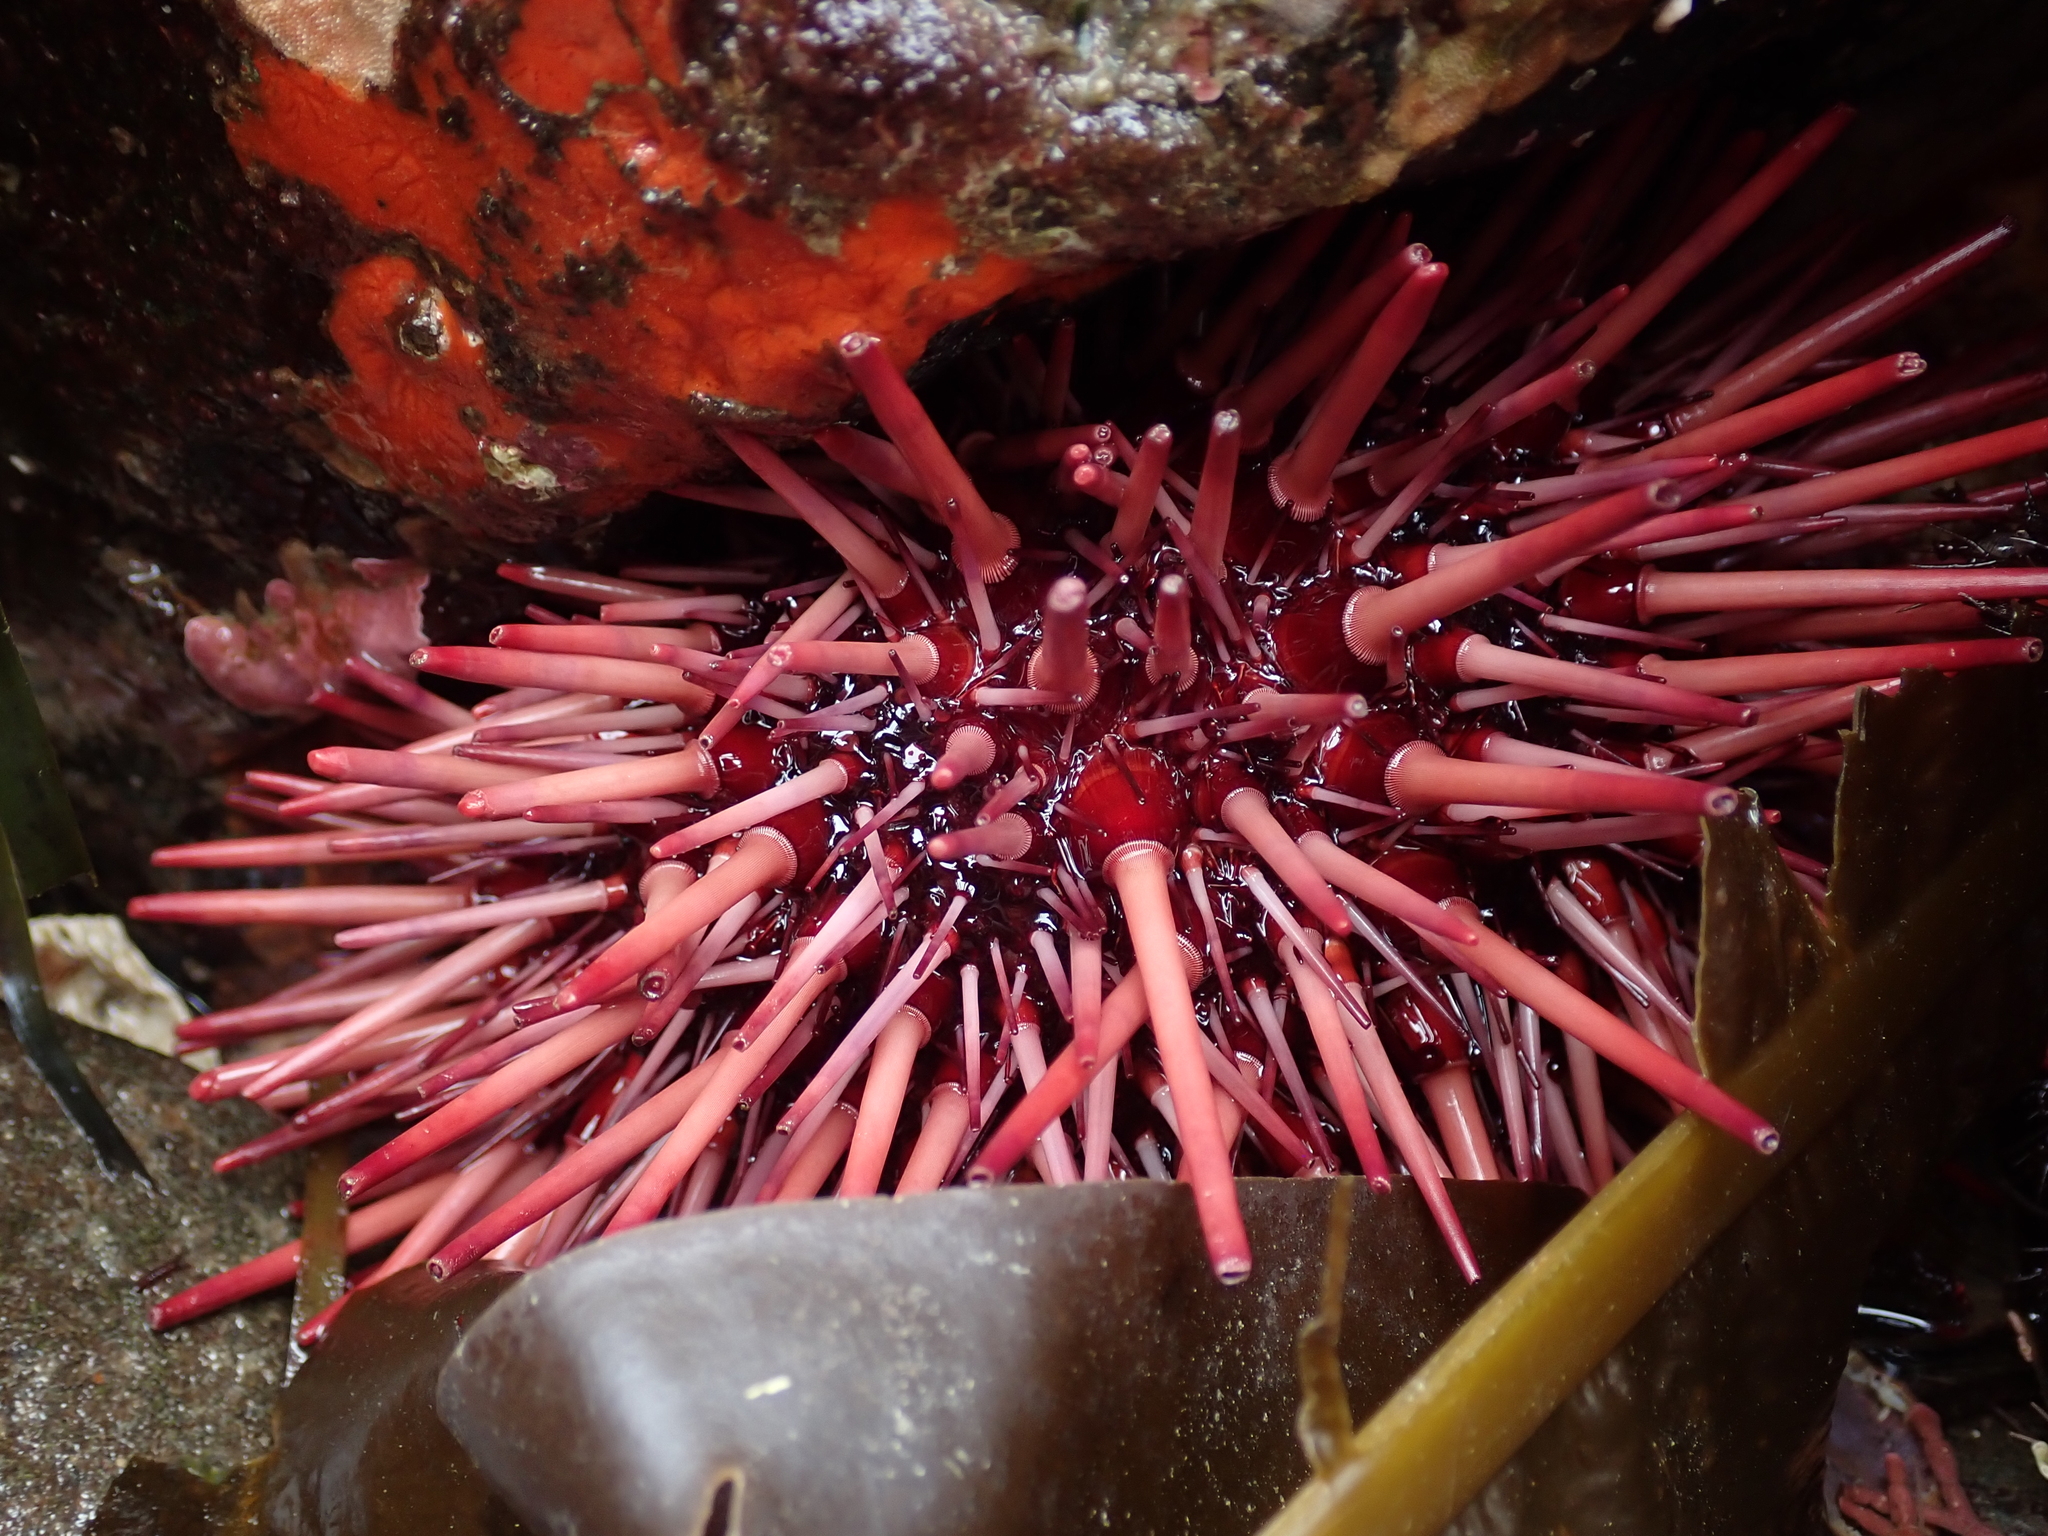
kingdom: Animalia
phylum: Echinodermata
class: Echinoidea
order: Camarodonta
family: Strongylocentrotidae
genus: Mesocentrotus
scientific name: Mesocentrotus franciscanus
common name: Red sea urchin
